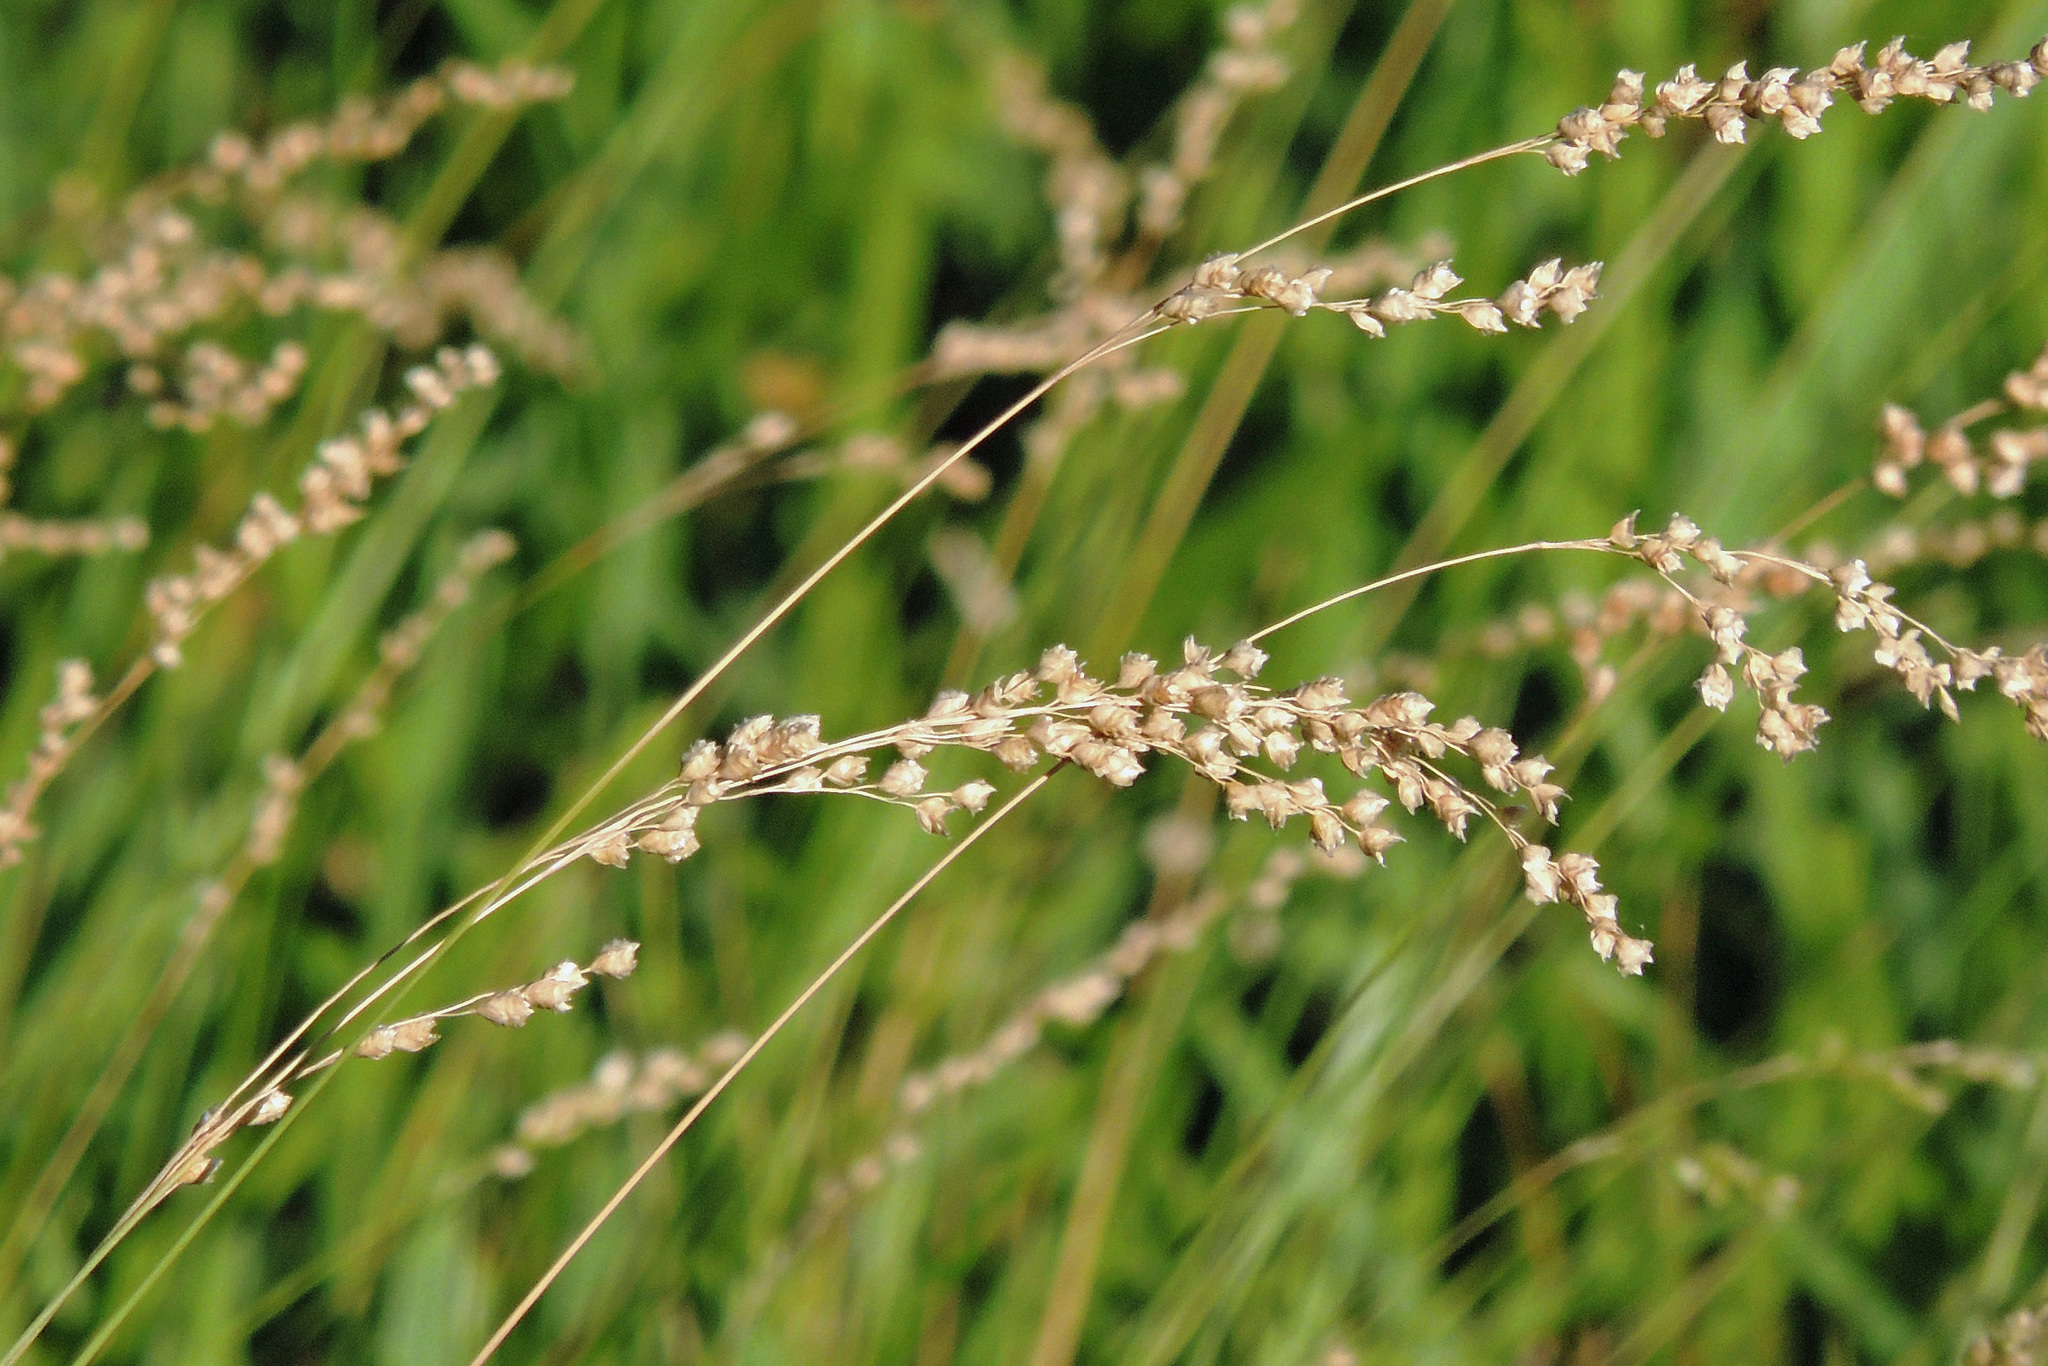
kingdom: Plantae
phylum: Tracheophyta
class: Liliopsida
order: Poales
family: Poaceae
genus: Chascolytrum
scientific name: Chascolytrum subaristatum
